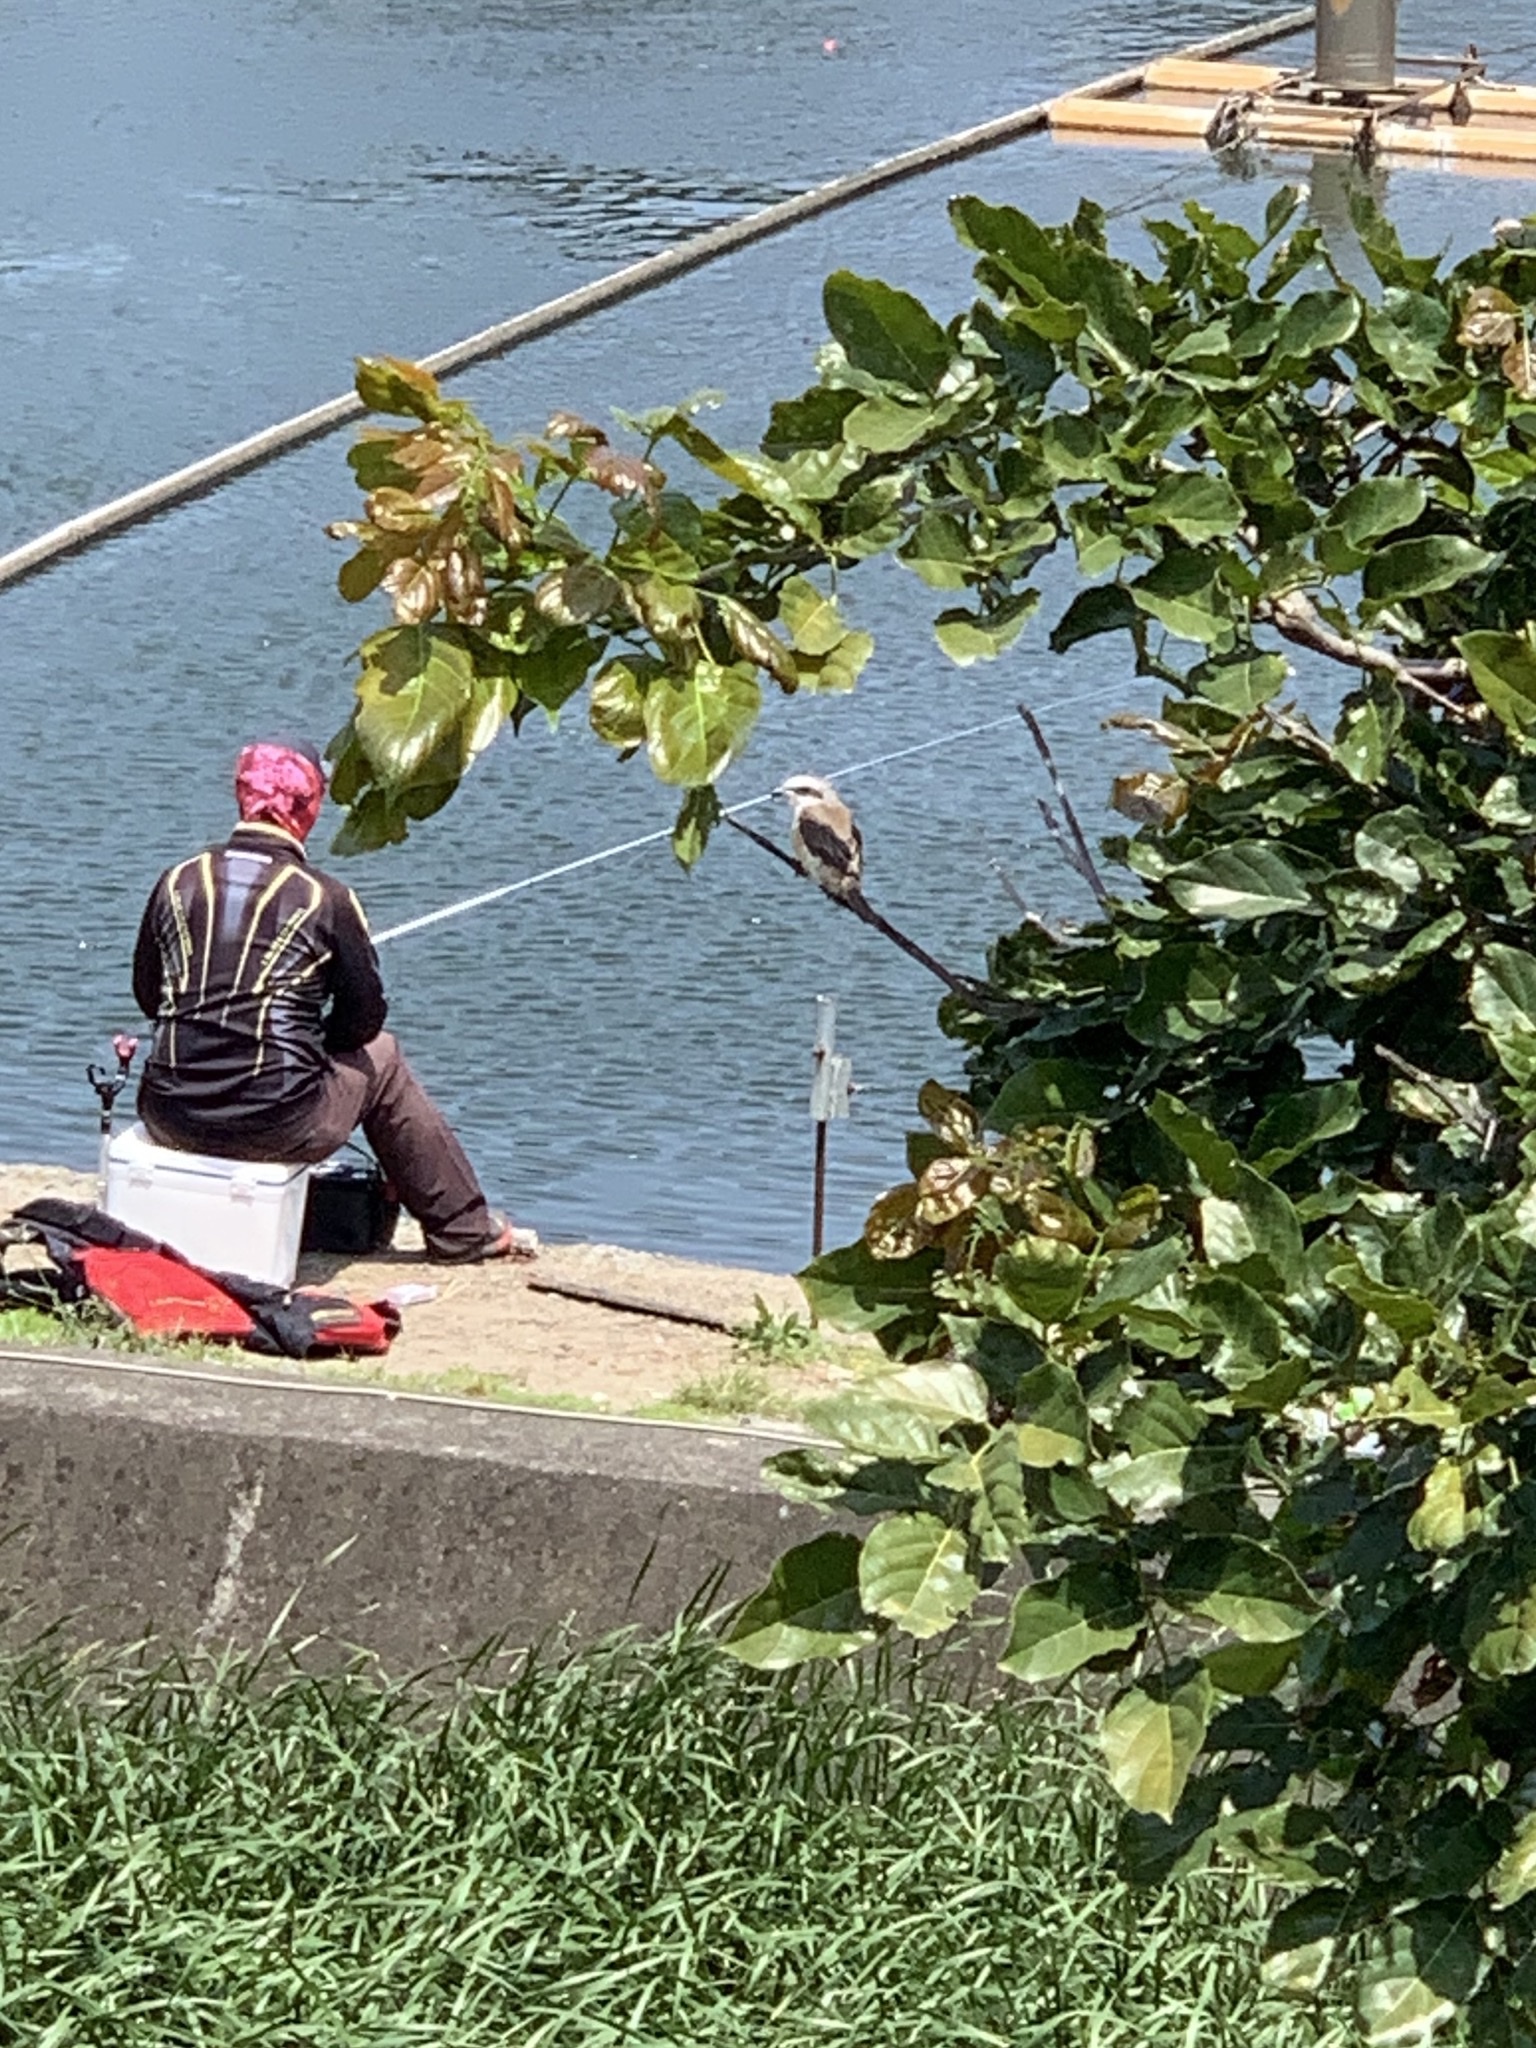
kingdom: Animalia
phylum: Chordata
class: Aves
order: Passeriformes
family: Laniidae
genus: Lanius
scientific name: Lanius schach
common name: Long-tailed shrike
